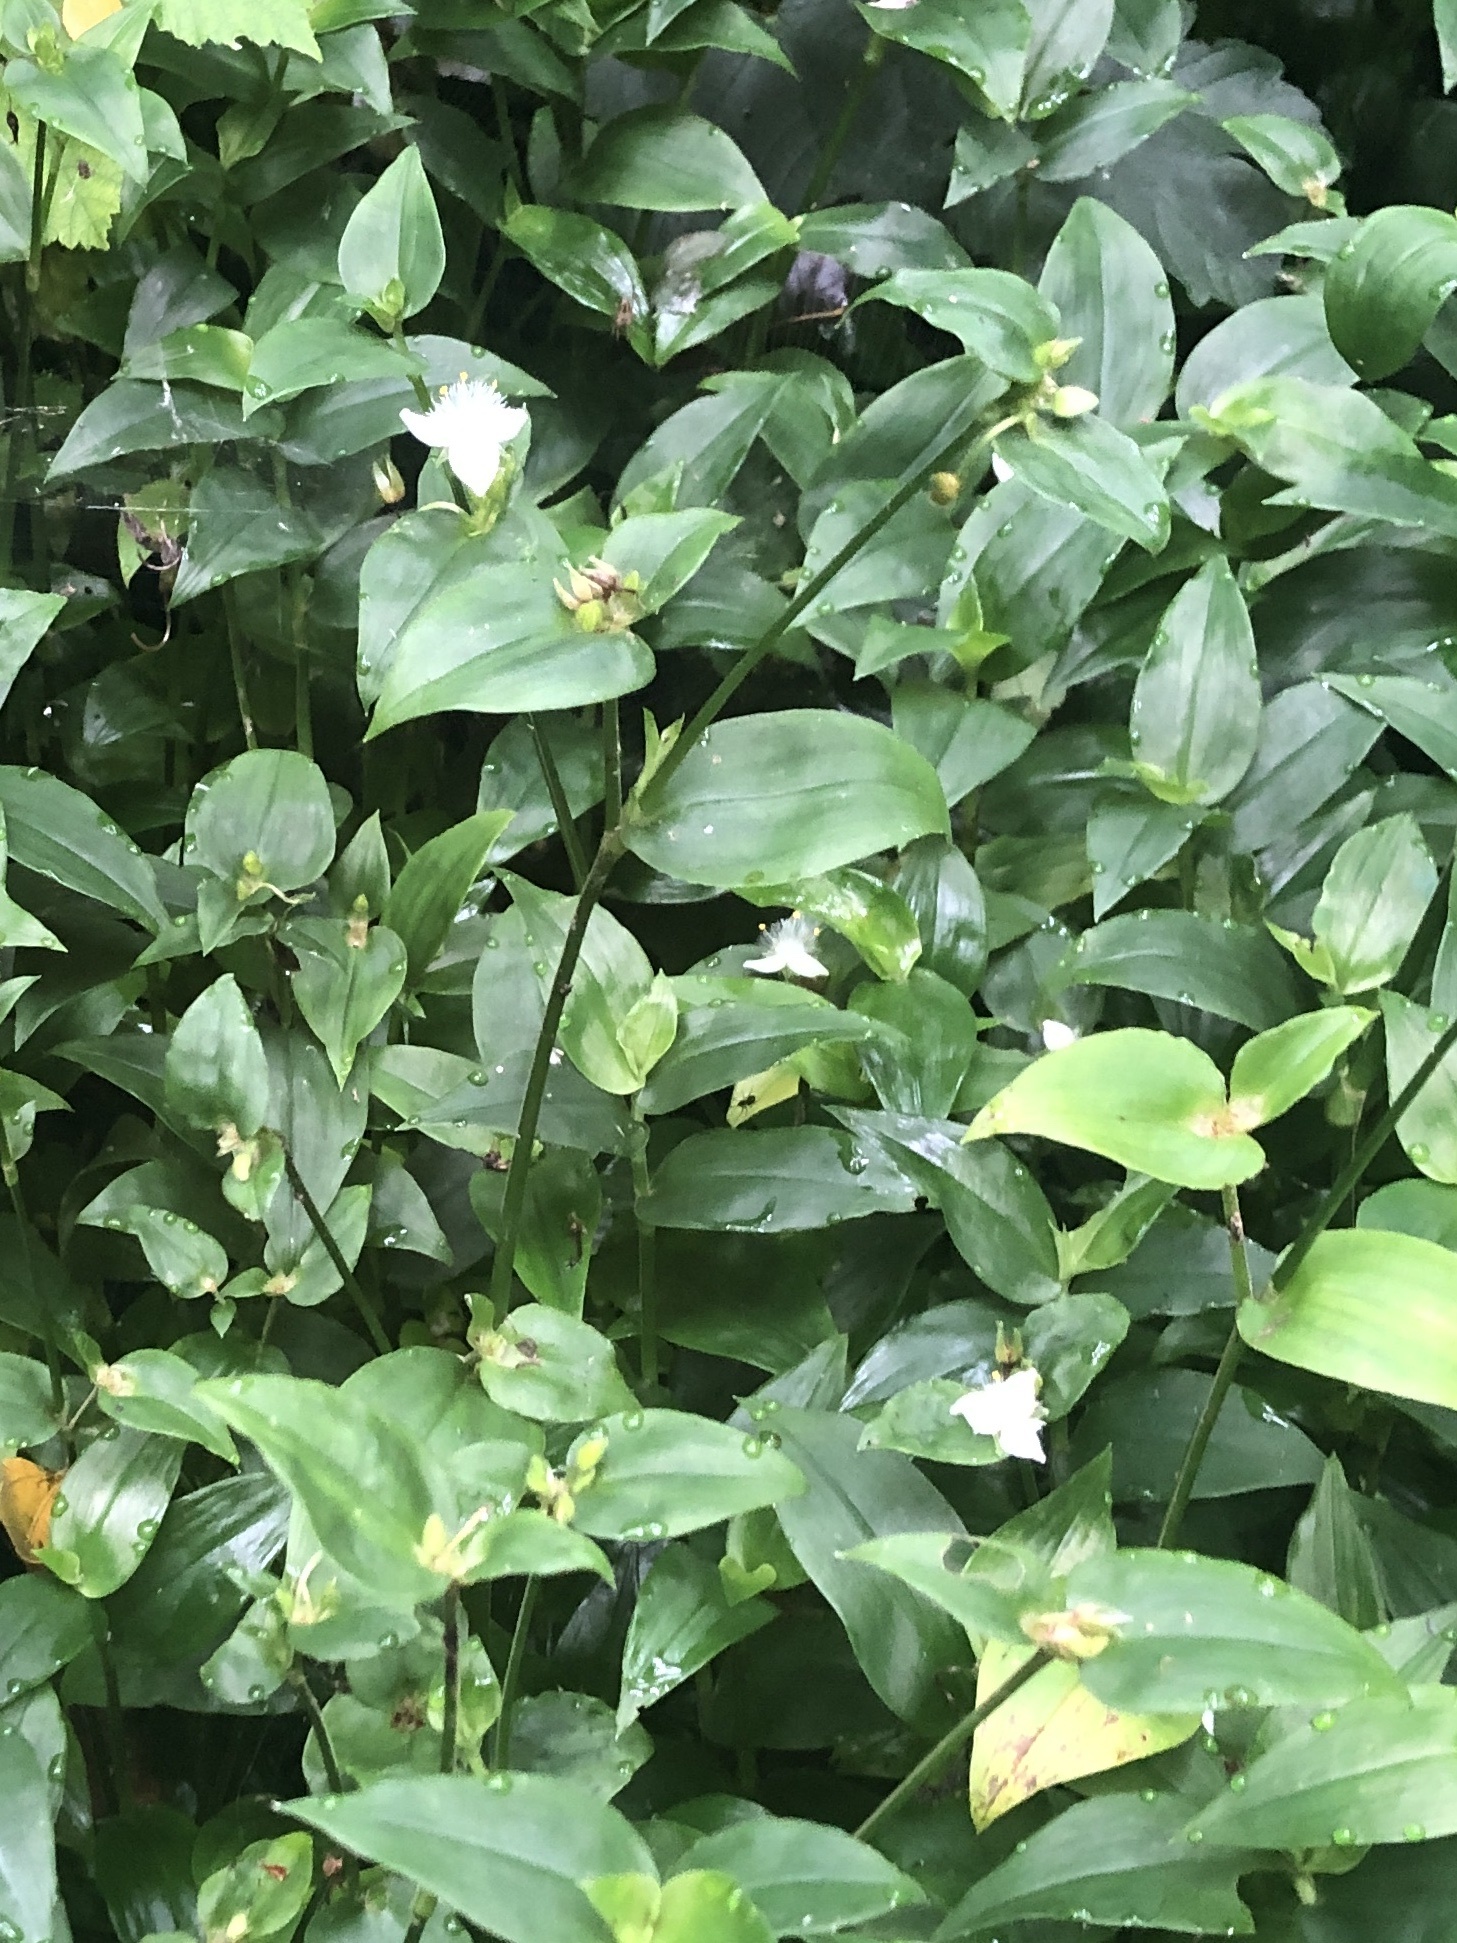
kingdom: Plantae
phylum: Tracheophyta
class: Liliopsida
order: Commelinales
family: Commelinaceae
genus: Tradescantia
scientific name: Tradescantia fluminensis
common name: Wandering-jew
